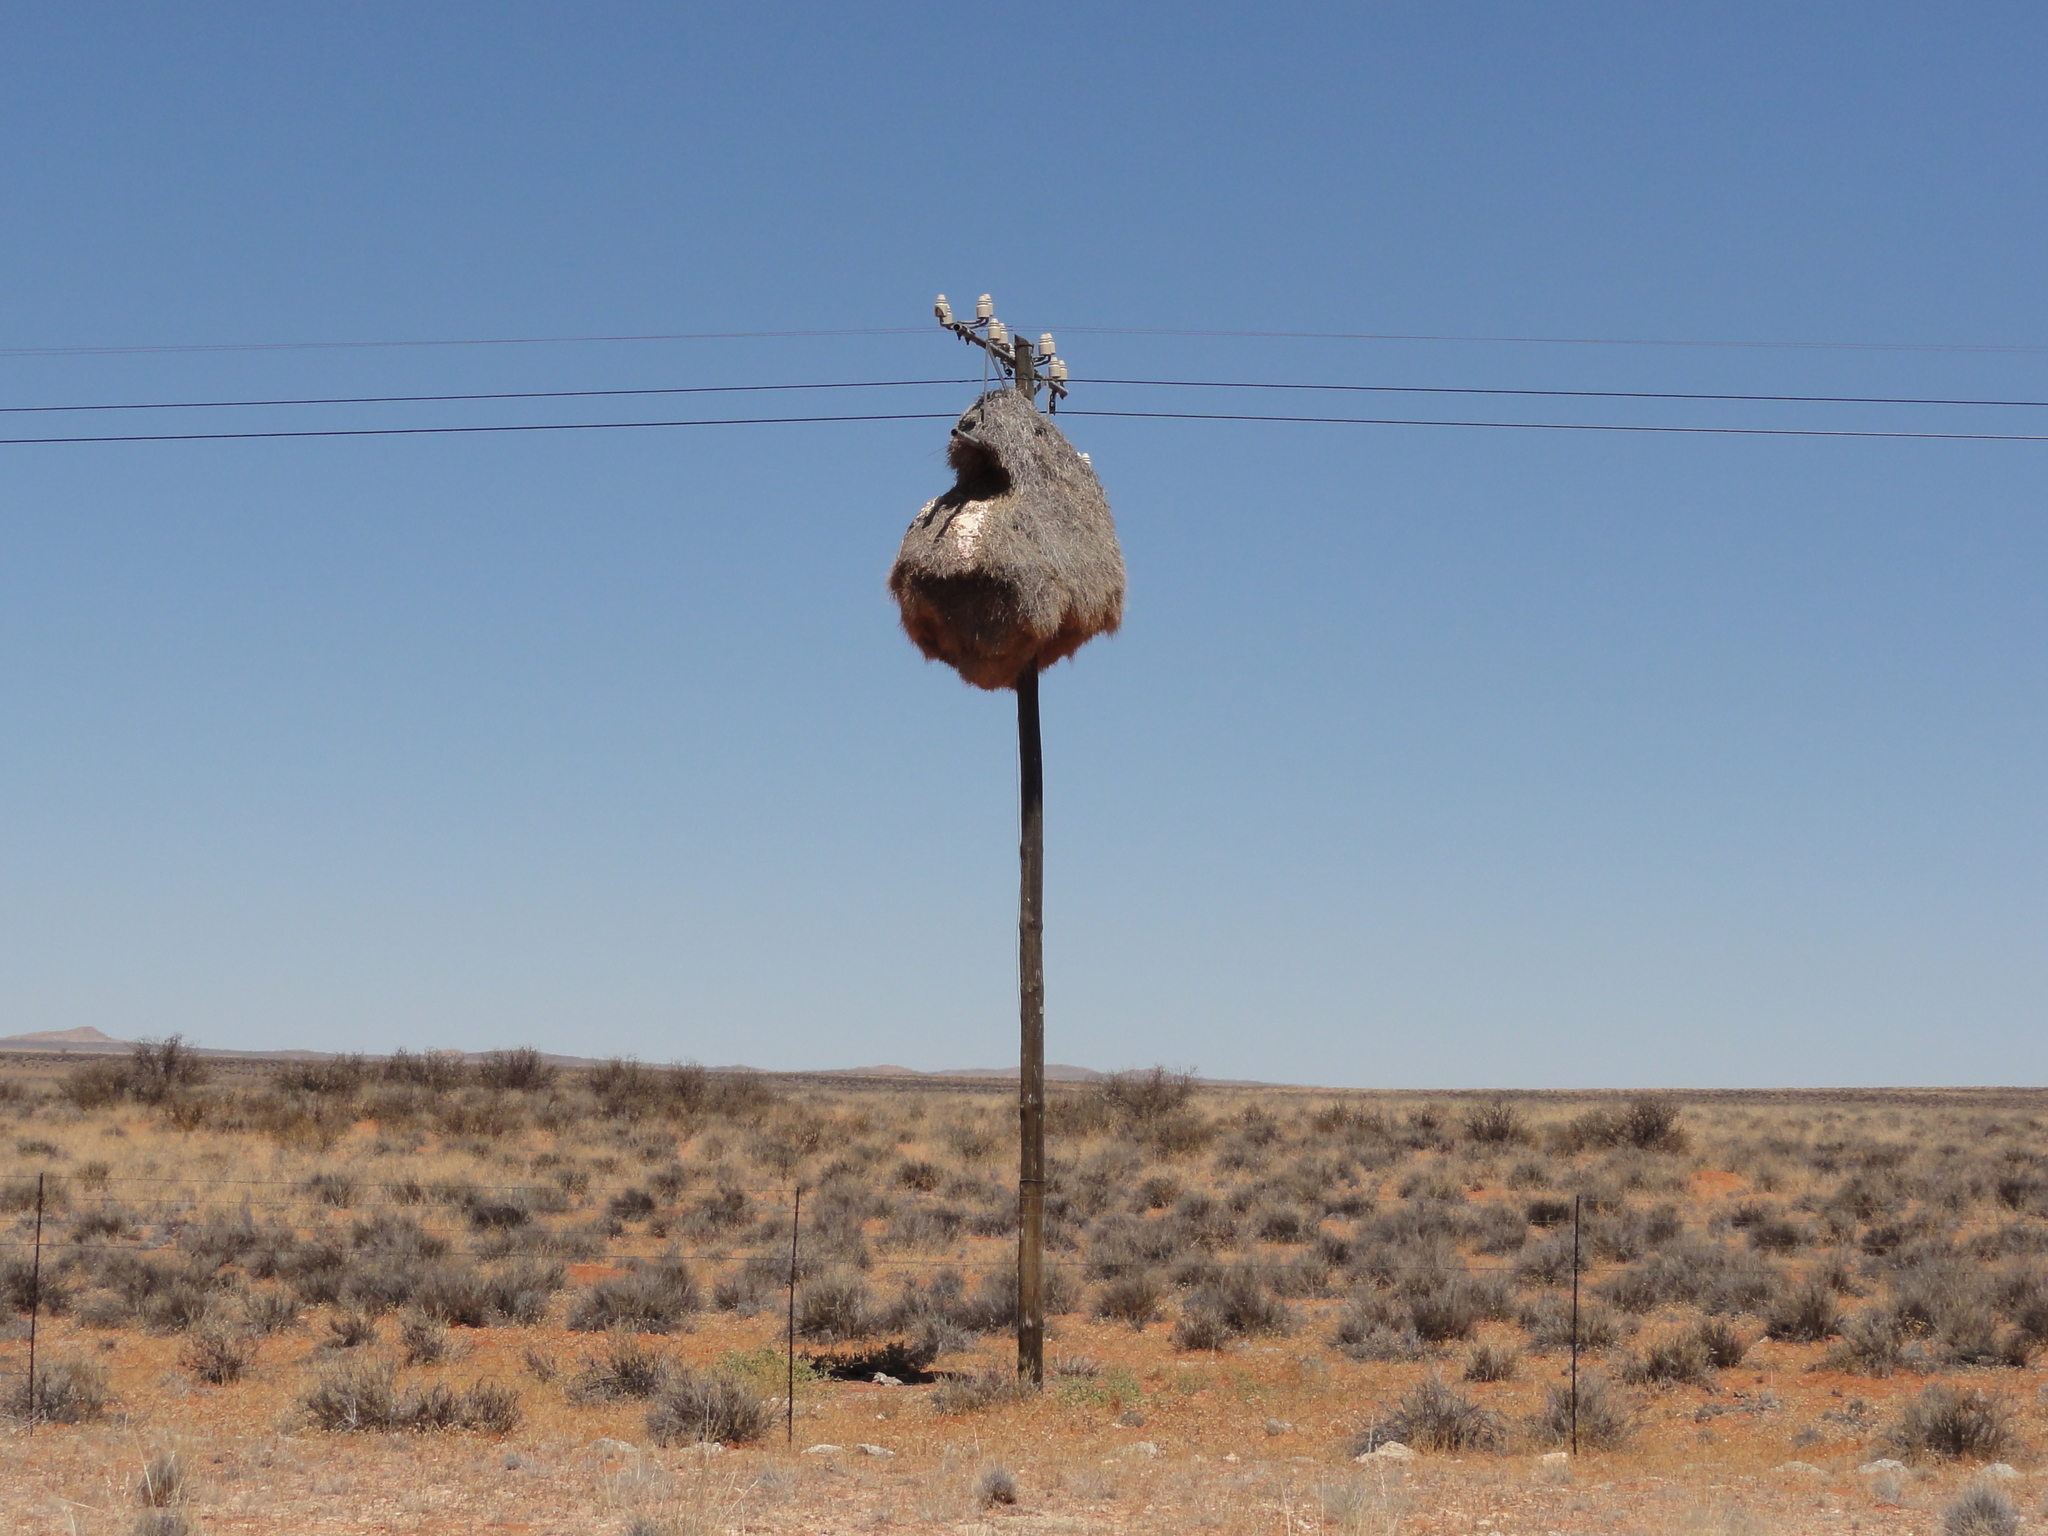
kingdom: Animalia
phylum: Chordata
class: Aves
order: Passeriformes
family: Passeridae
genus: Philetairus
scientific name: Philetairus socius
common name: Sociable weaver
